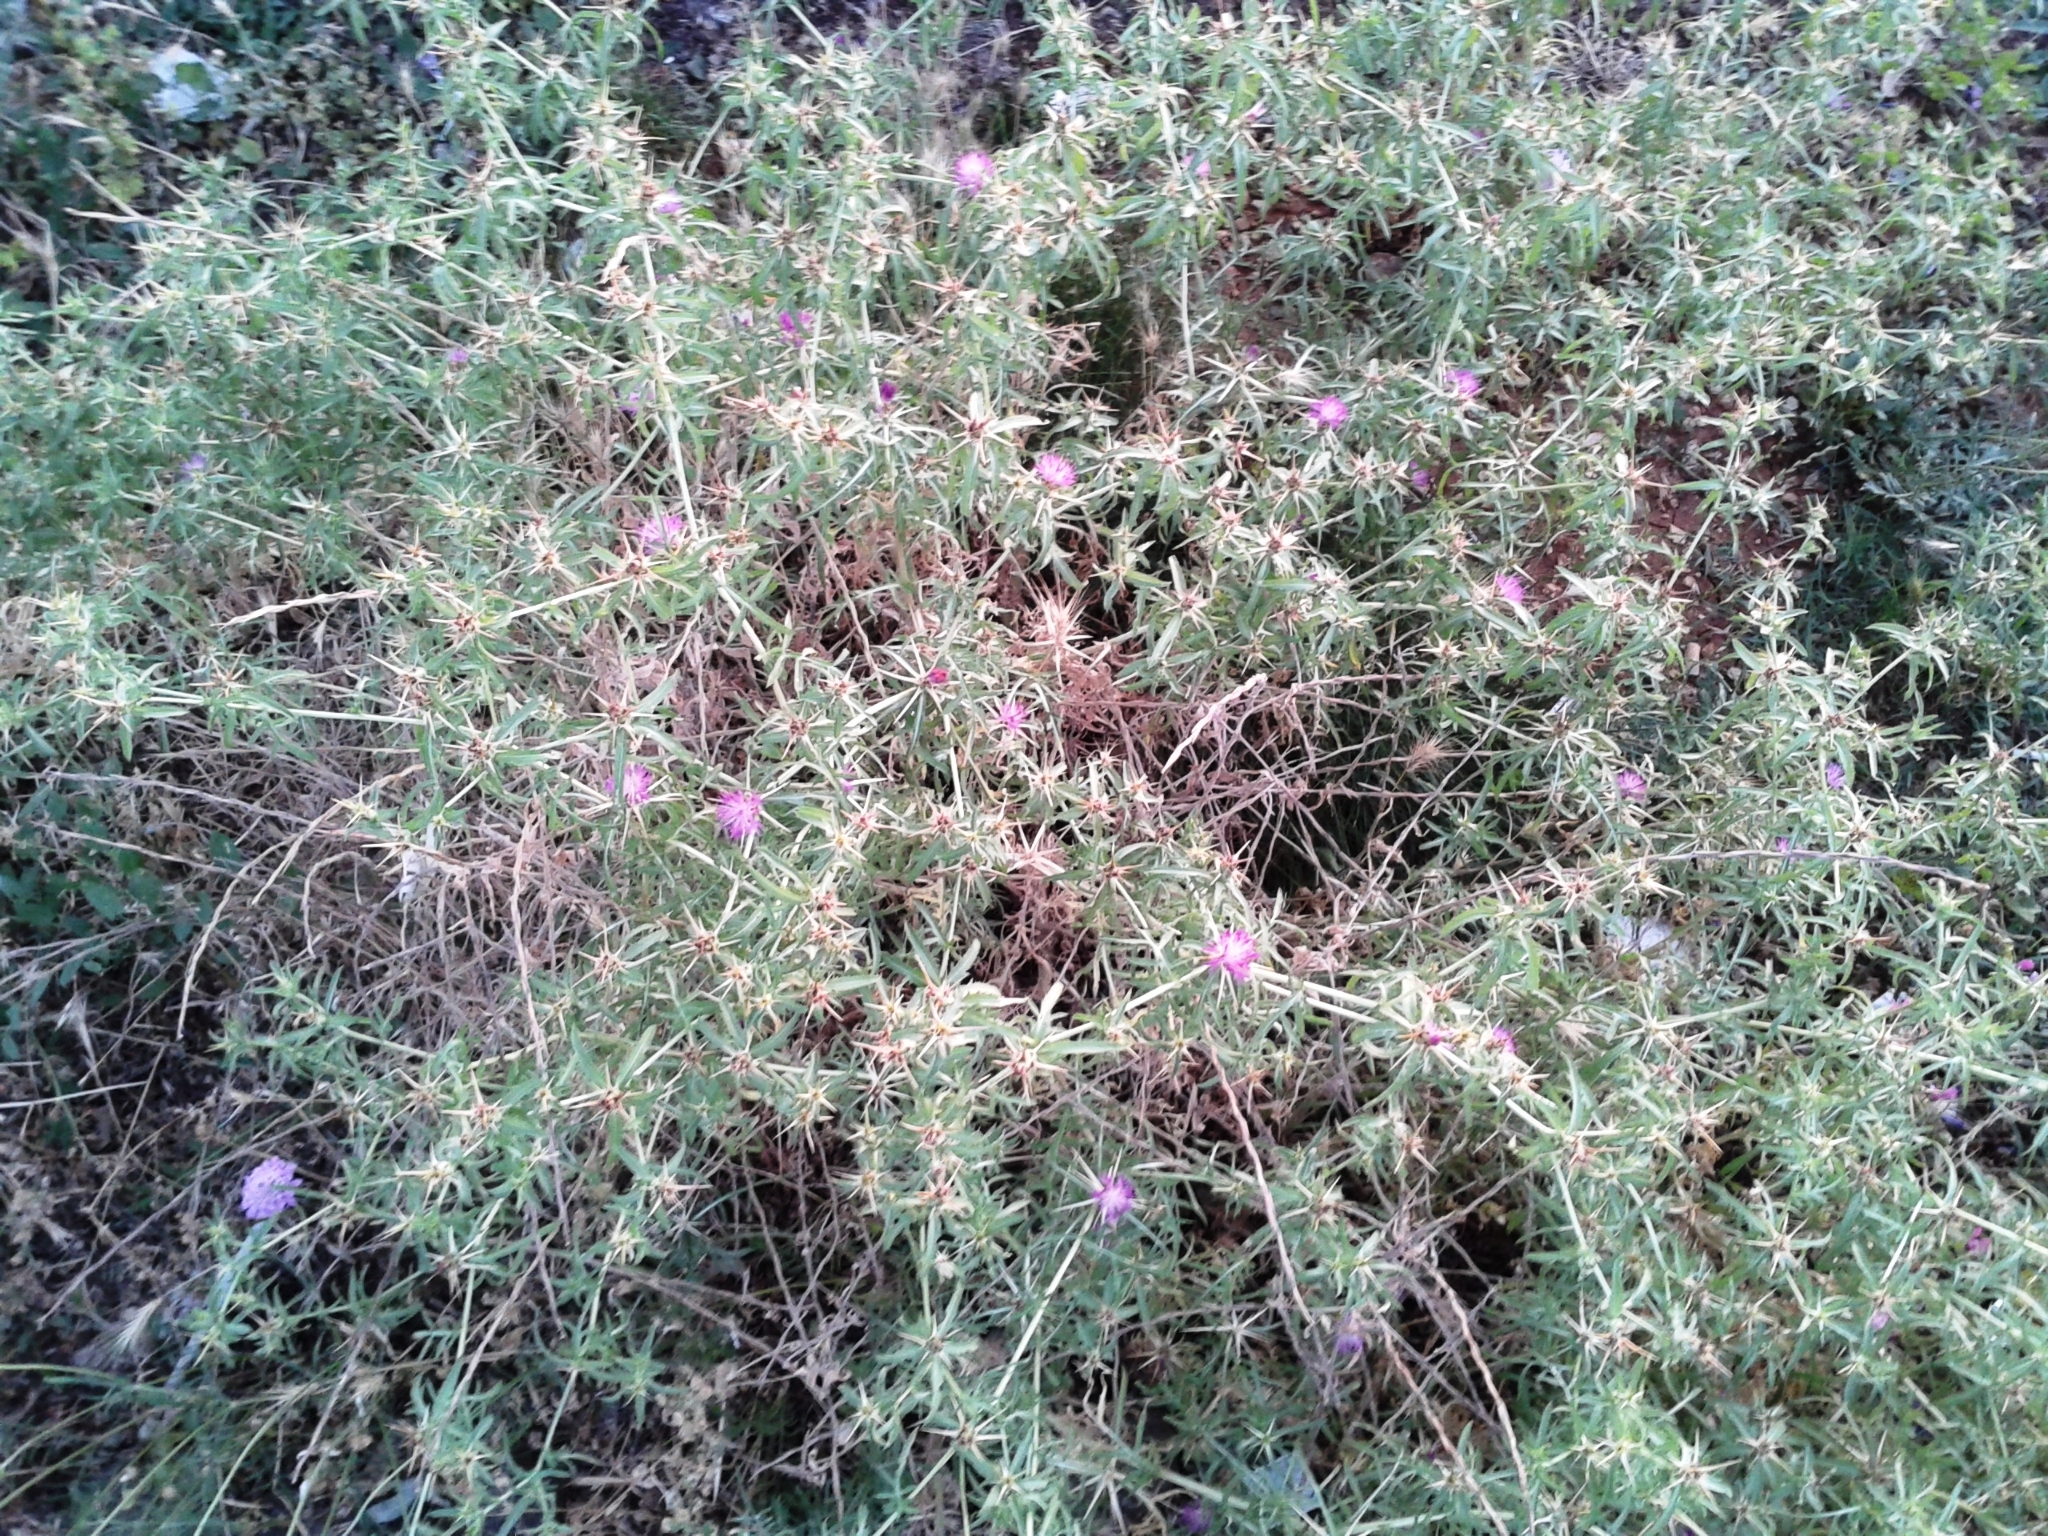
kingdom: Plantae
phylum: Tracheophyta
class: Magnoliopsida
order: Asterales
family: Asteraceae
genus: Centaurea
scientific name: Centaurea calcitrapa
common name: Red star-thistle
